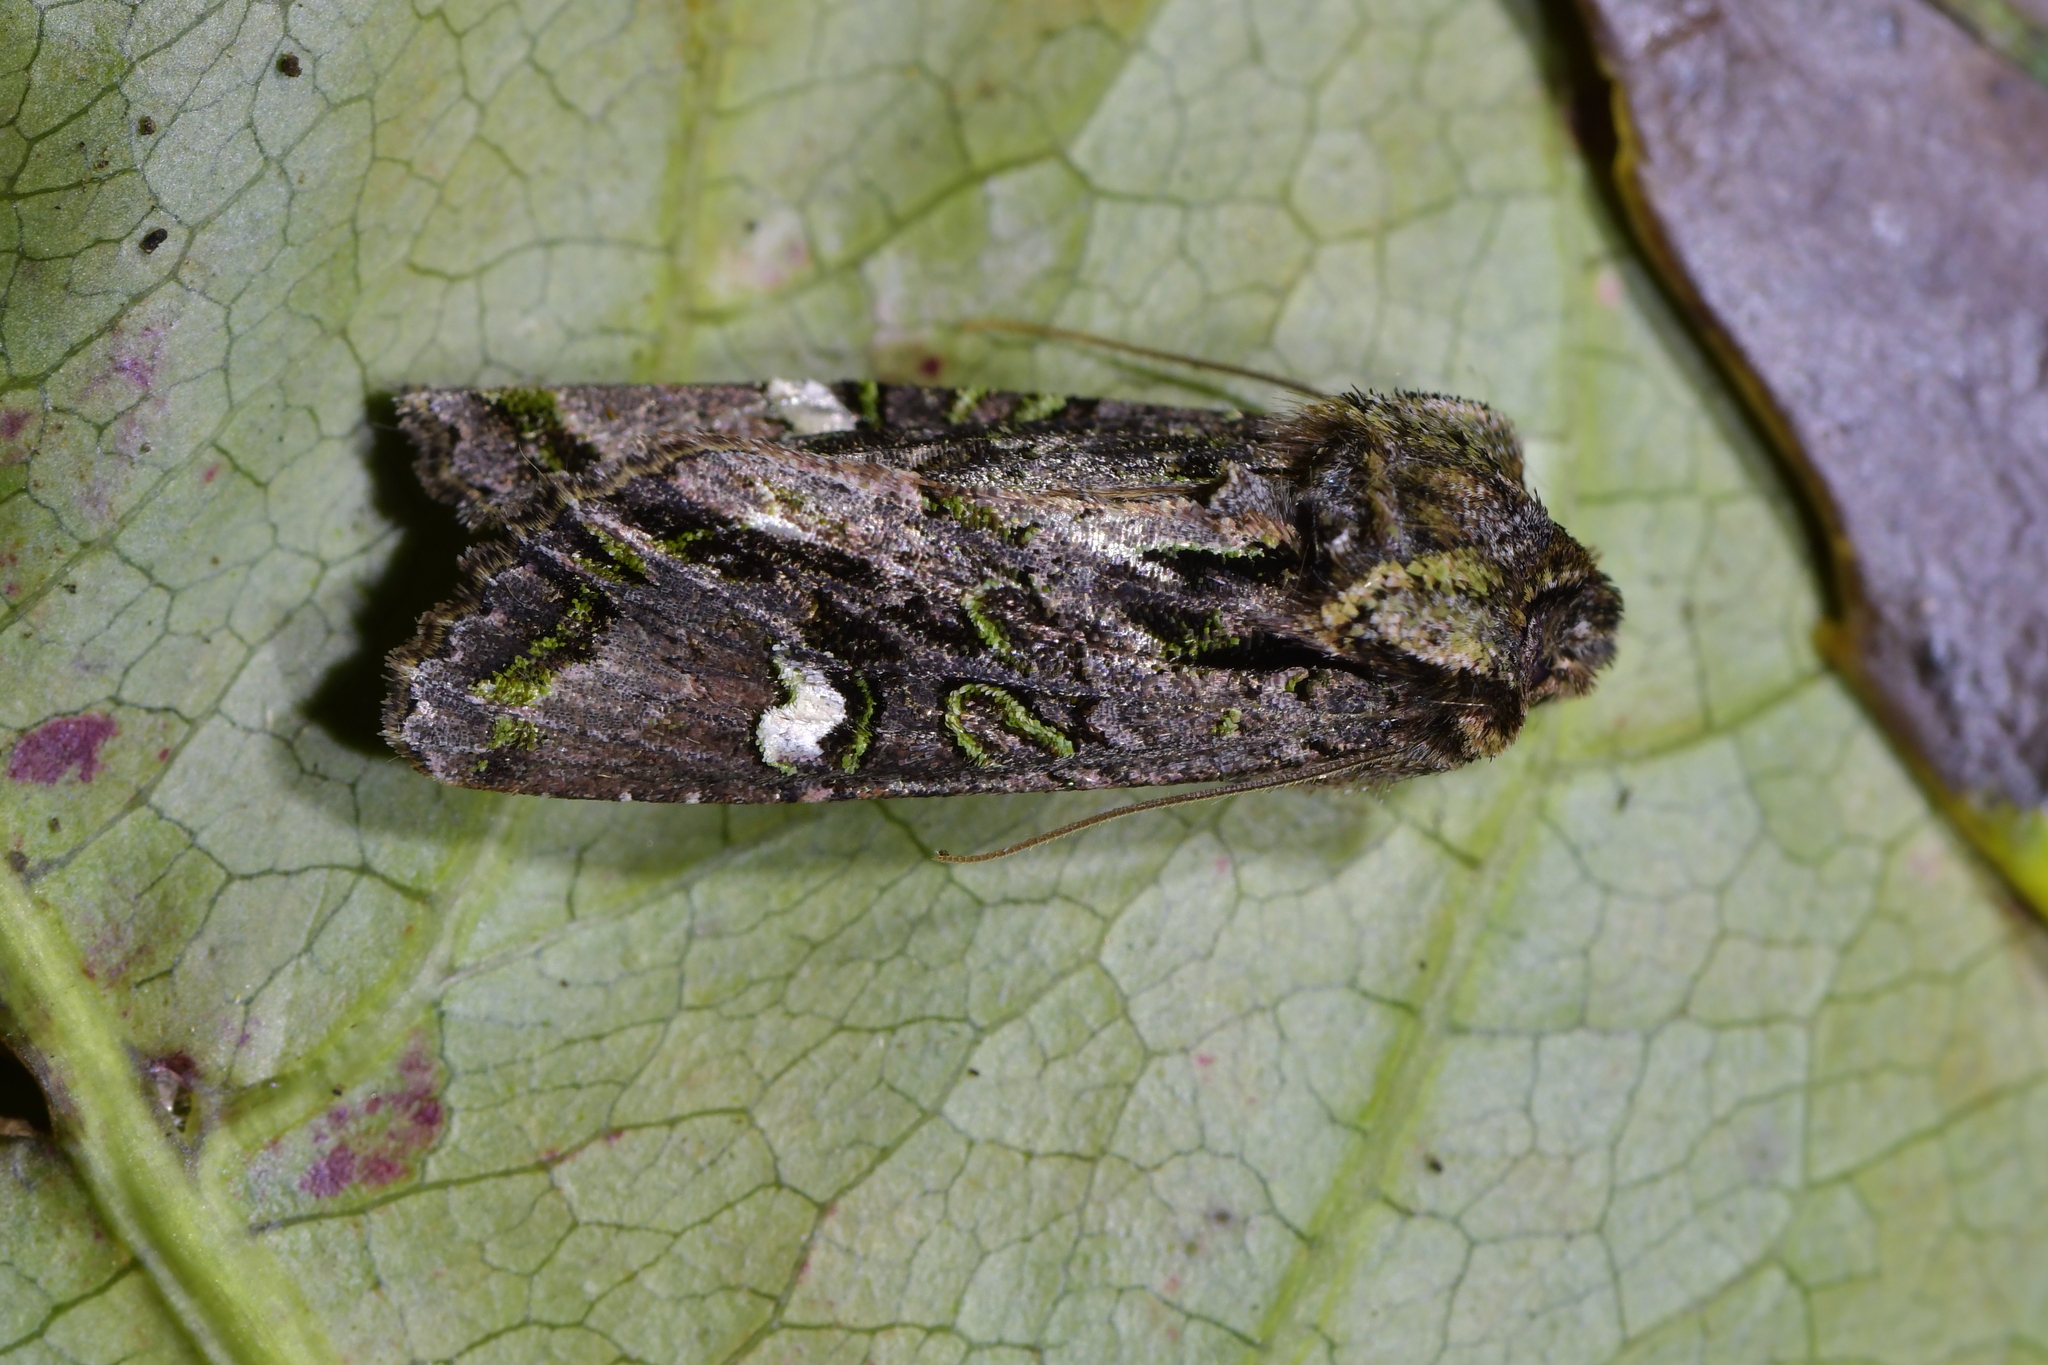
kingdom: Animalia
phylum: Arthropoda
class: Insecta
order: Lepidoptera
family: Noctuidae
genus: Ichneutica
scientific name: Ichneutica insignis
